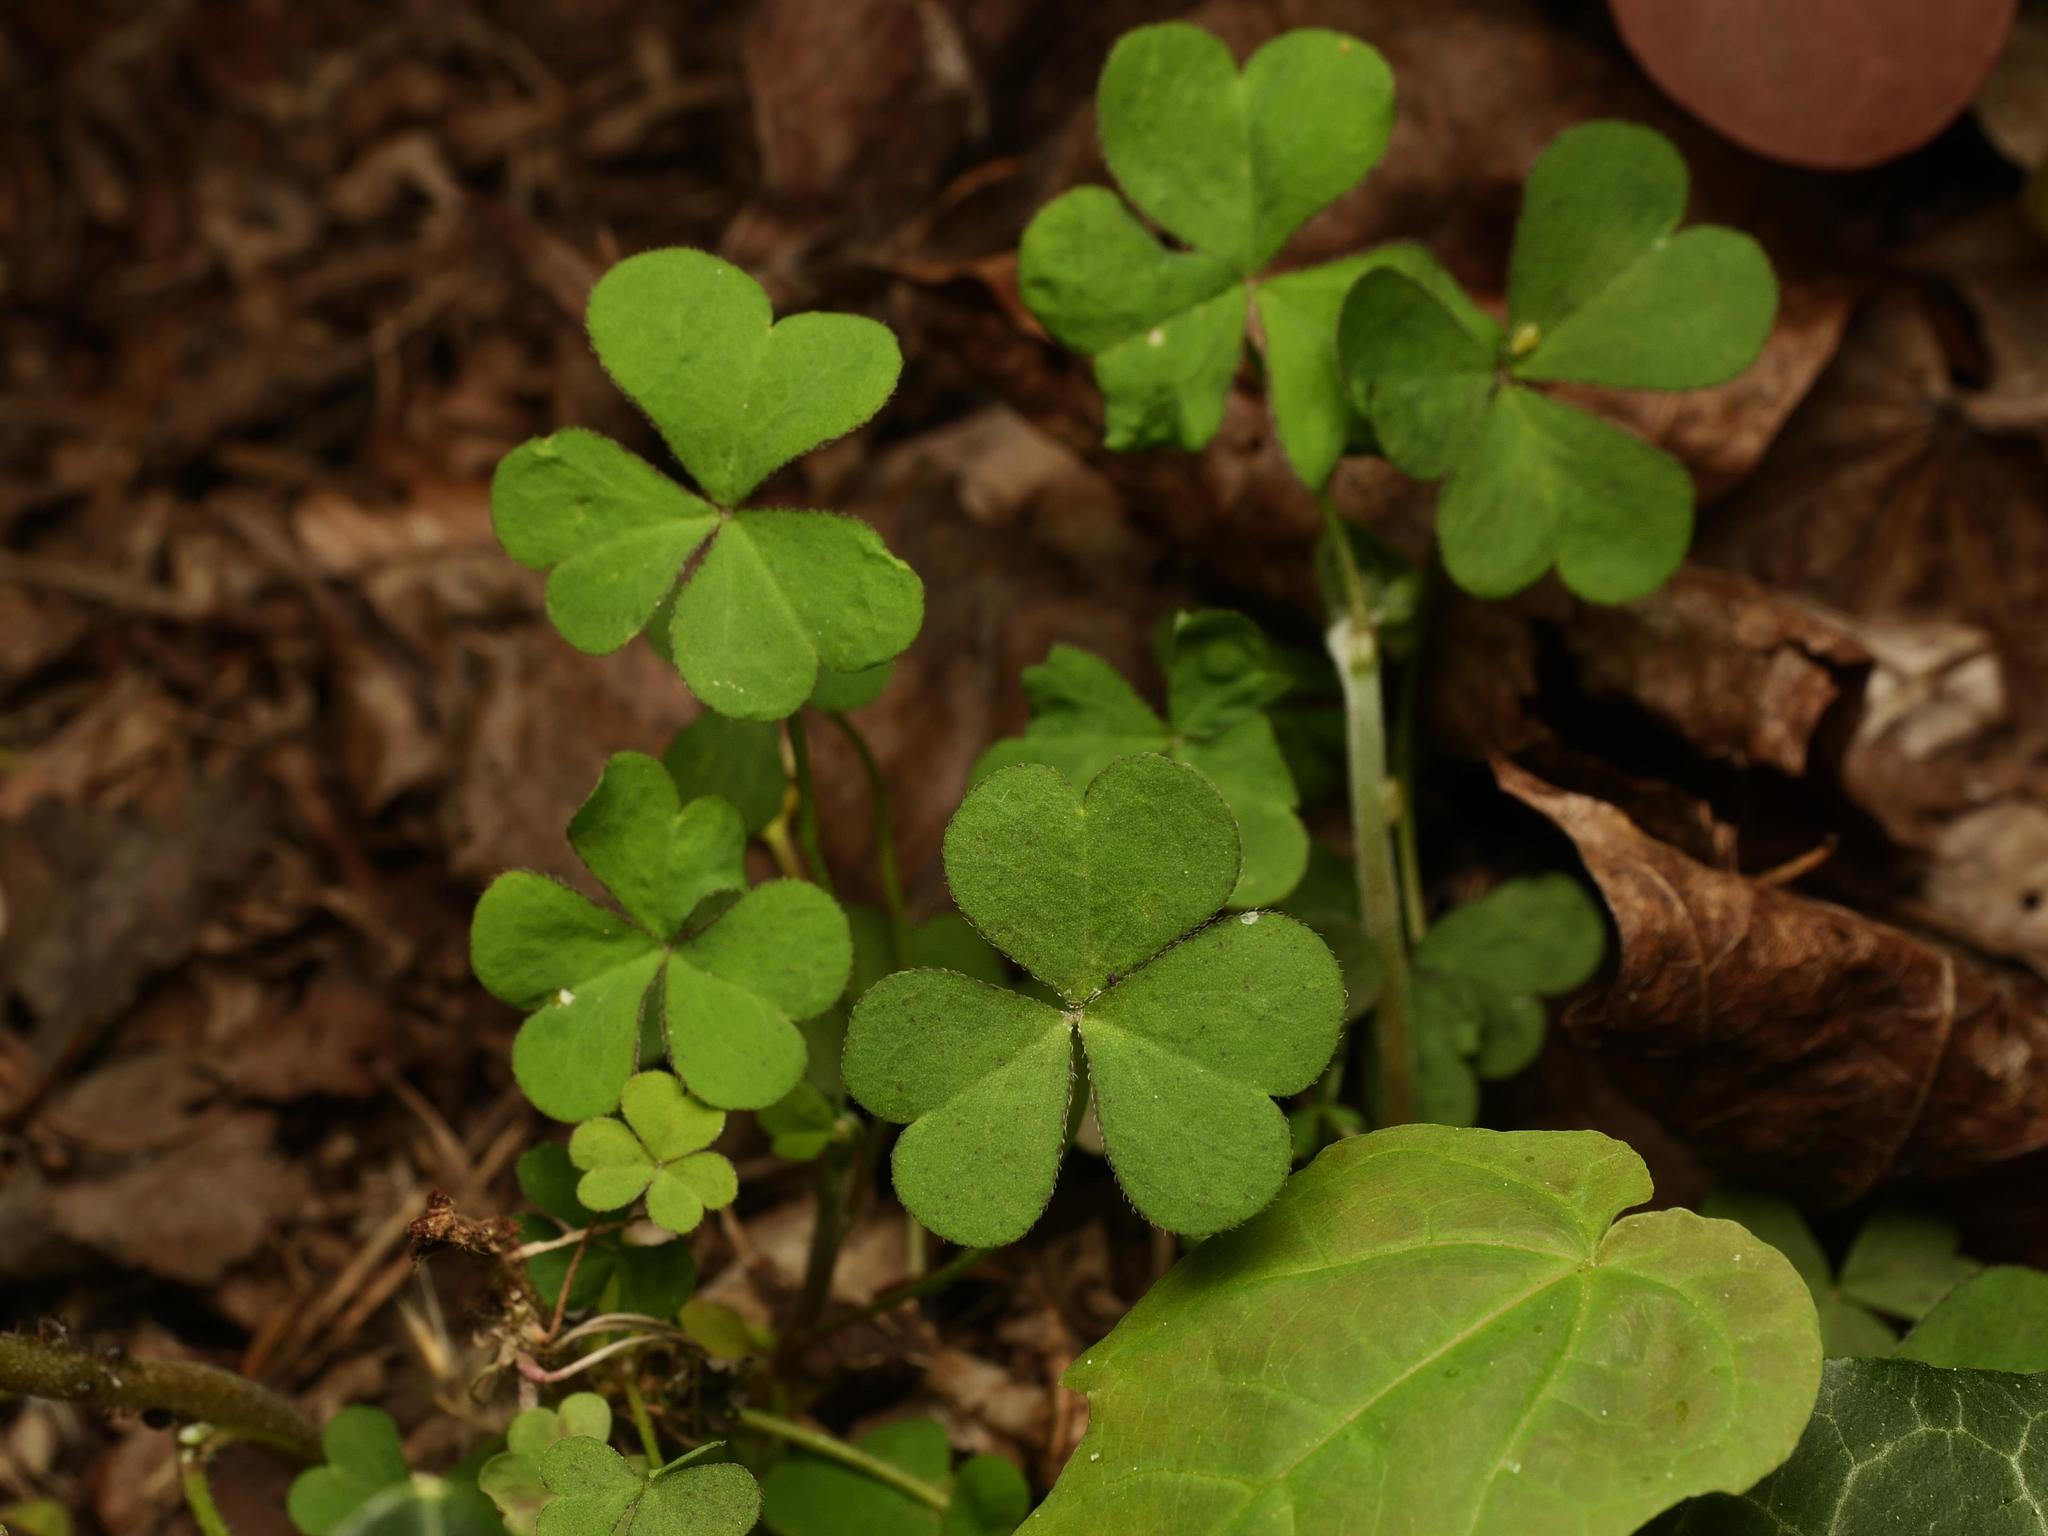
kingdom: Plantae
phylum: Tracheophyta
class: Magnoliopsida
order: Oxalidales
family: Oxalidaceae
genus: Oxalis
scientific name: Oxalis corniculata
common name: Procumbent yellow-sorrel
